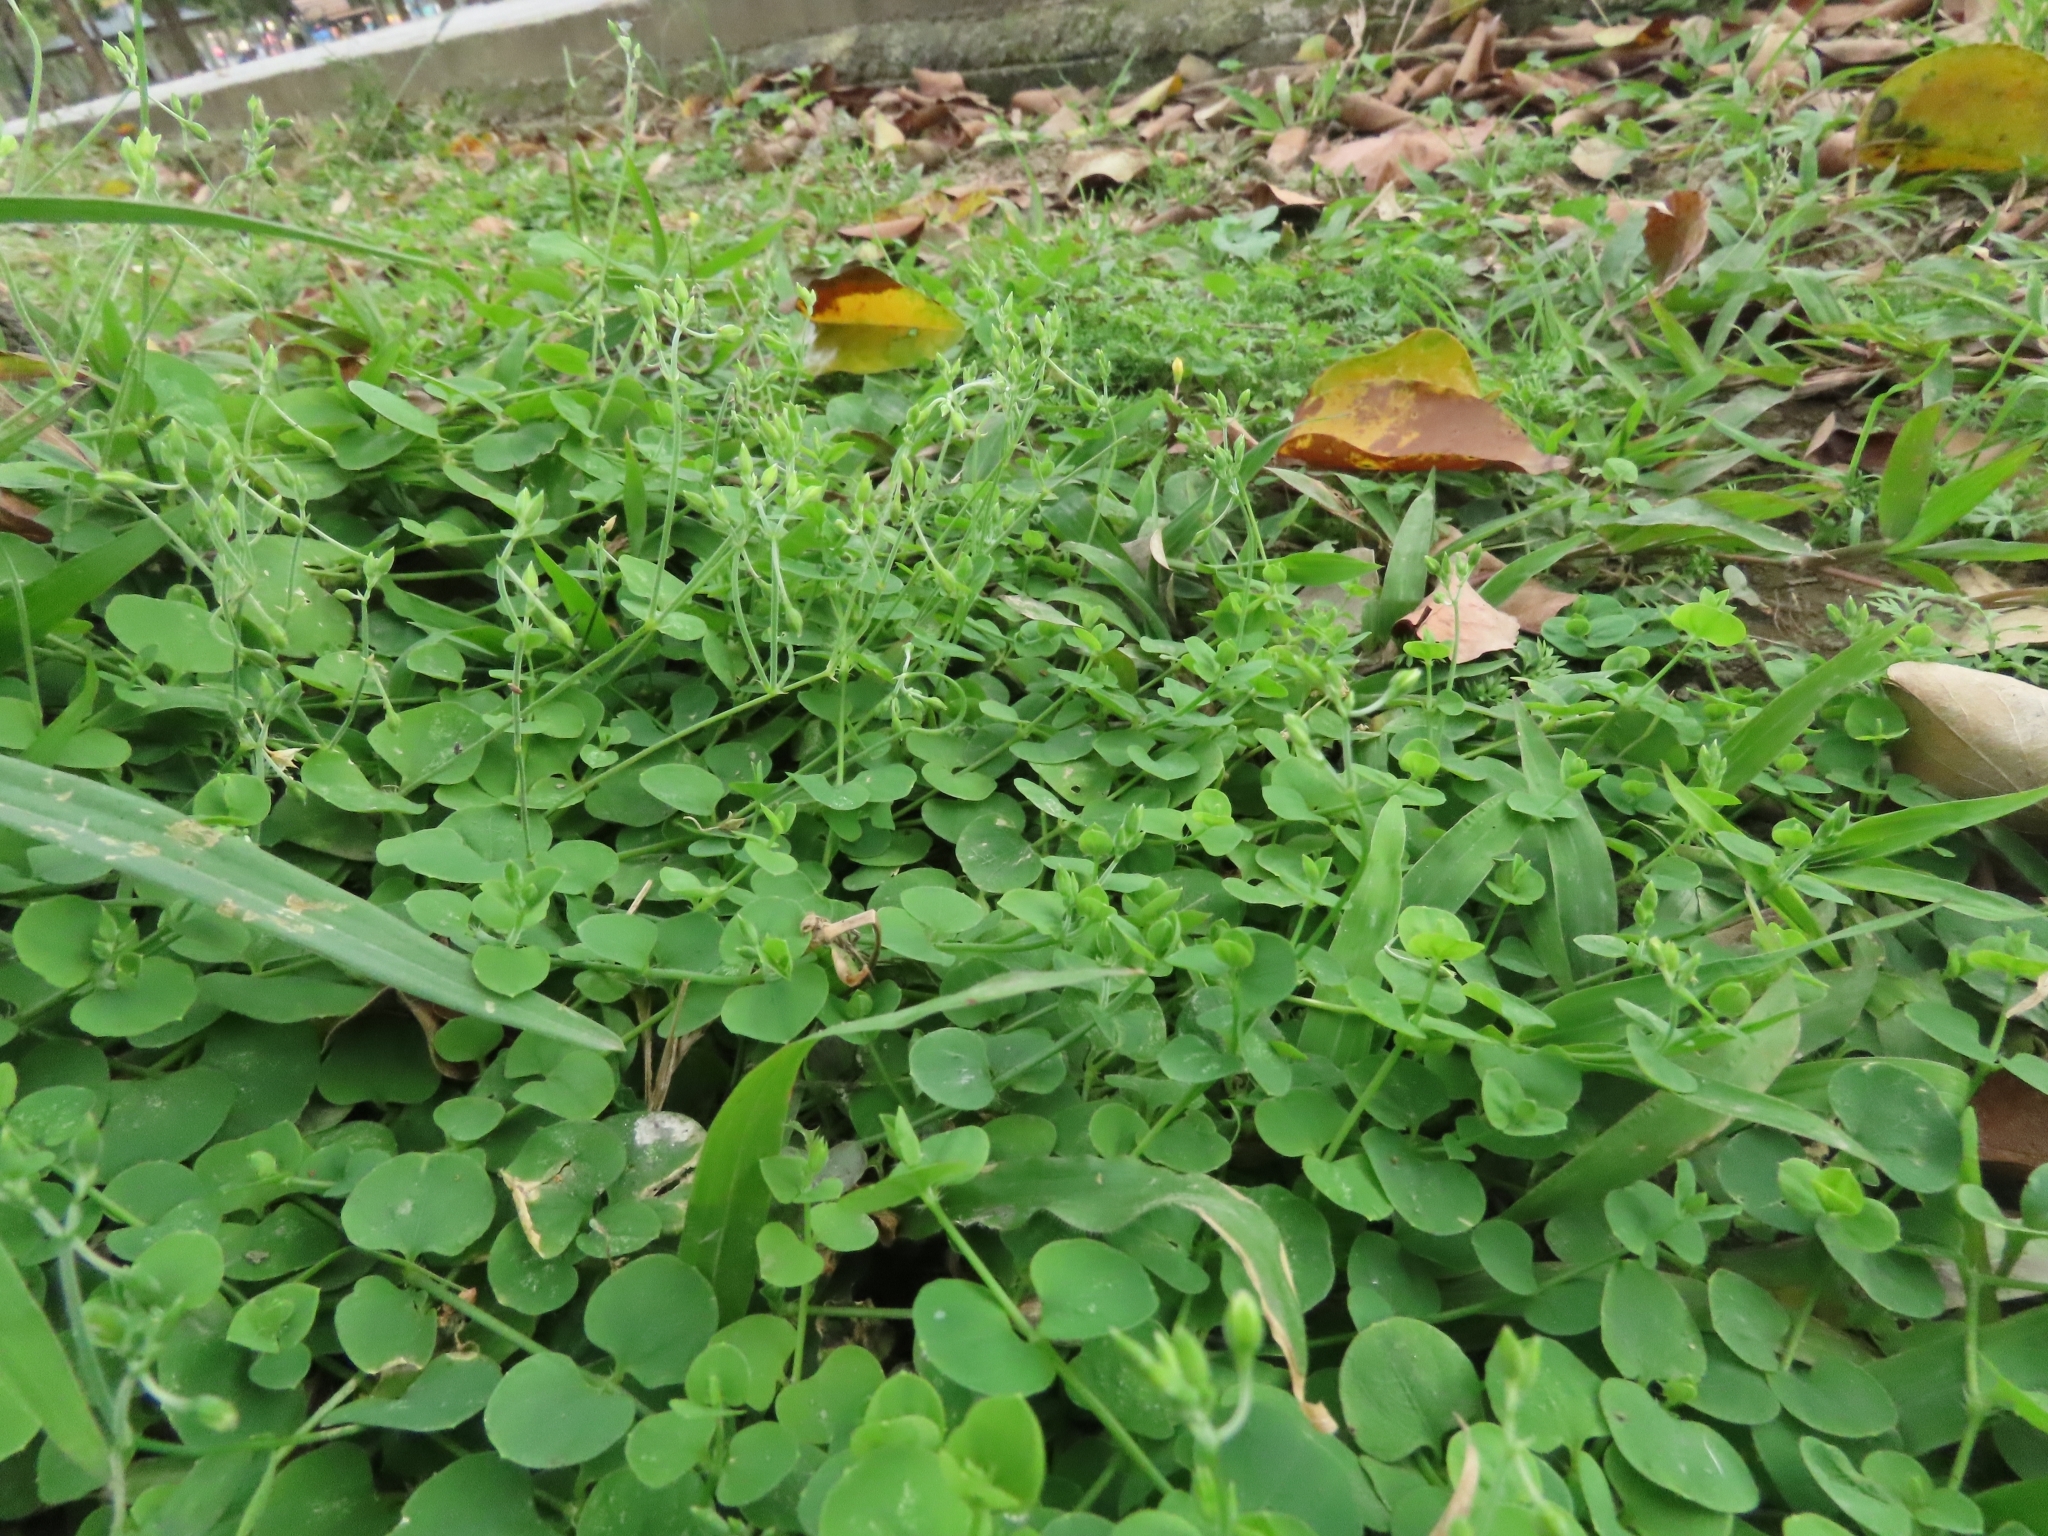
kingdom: Plantae
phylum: Tracheophyta
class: Magnoliopsida
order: Caryophyllales
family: Caryophyllaceae
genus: Drymaria
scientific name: Drymaria cordata
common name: Whitesnow
